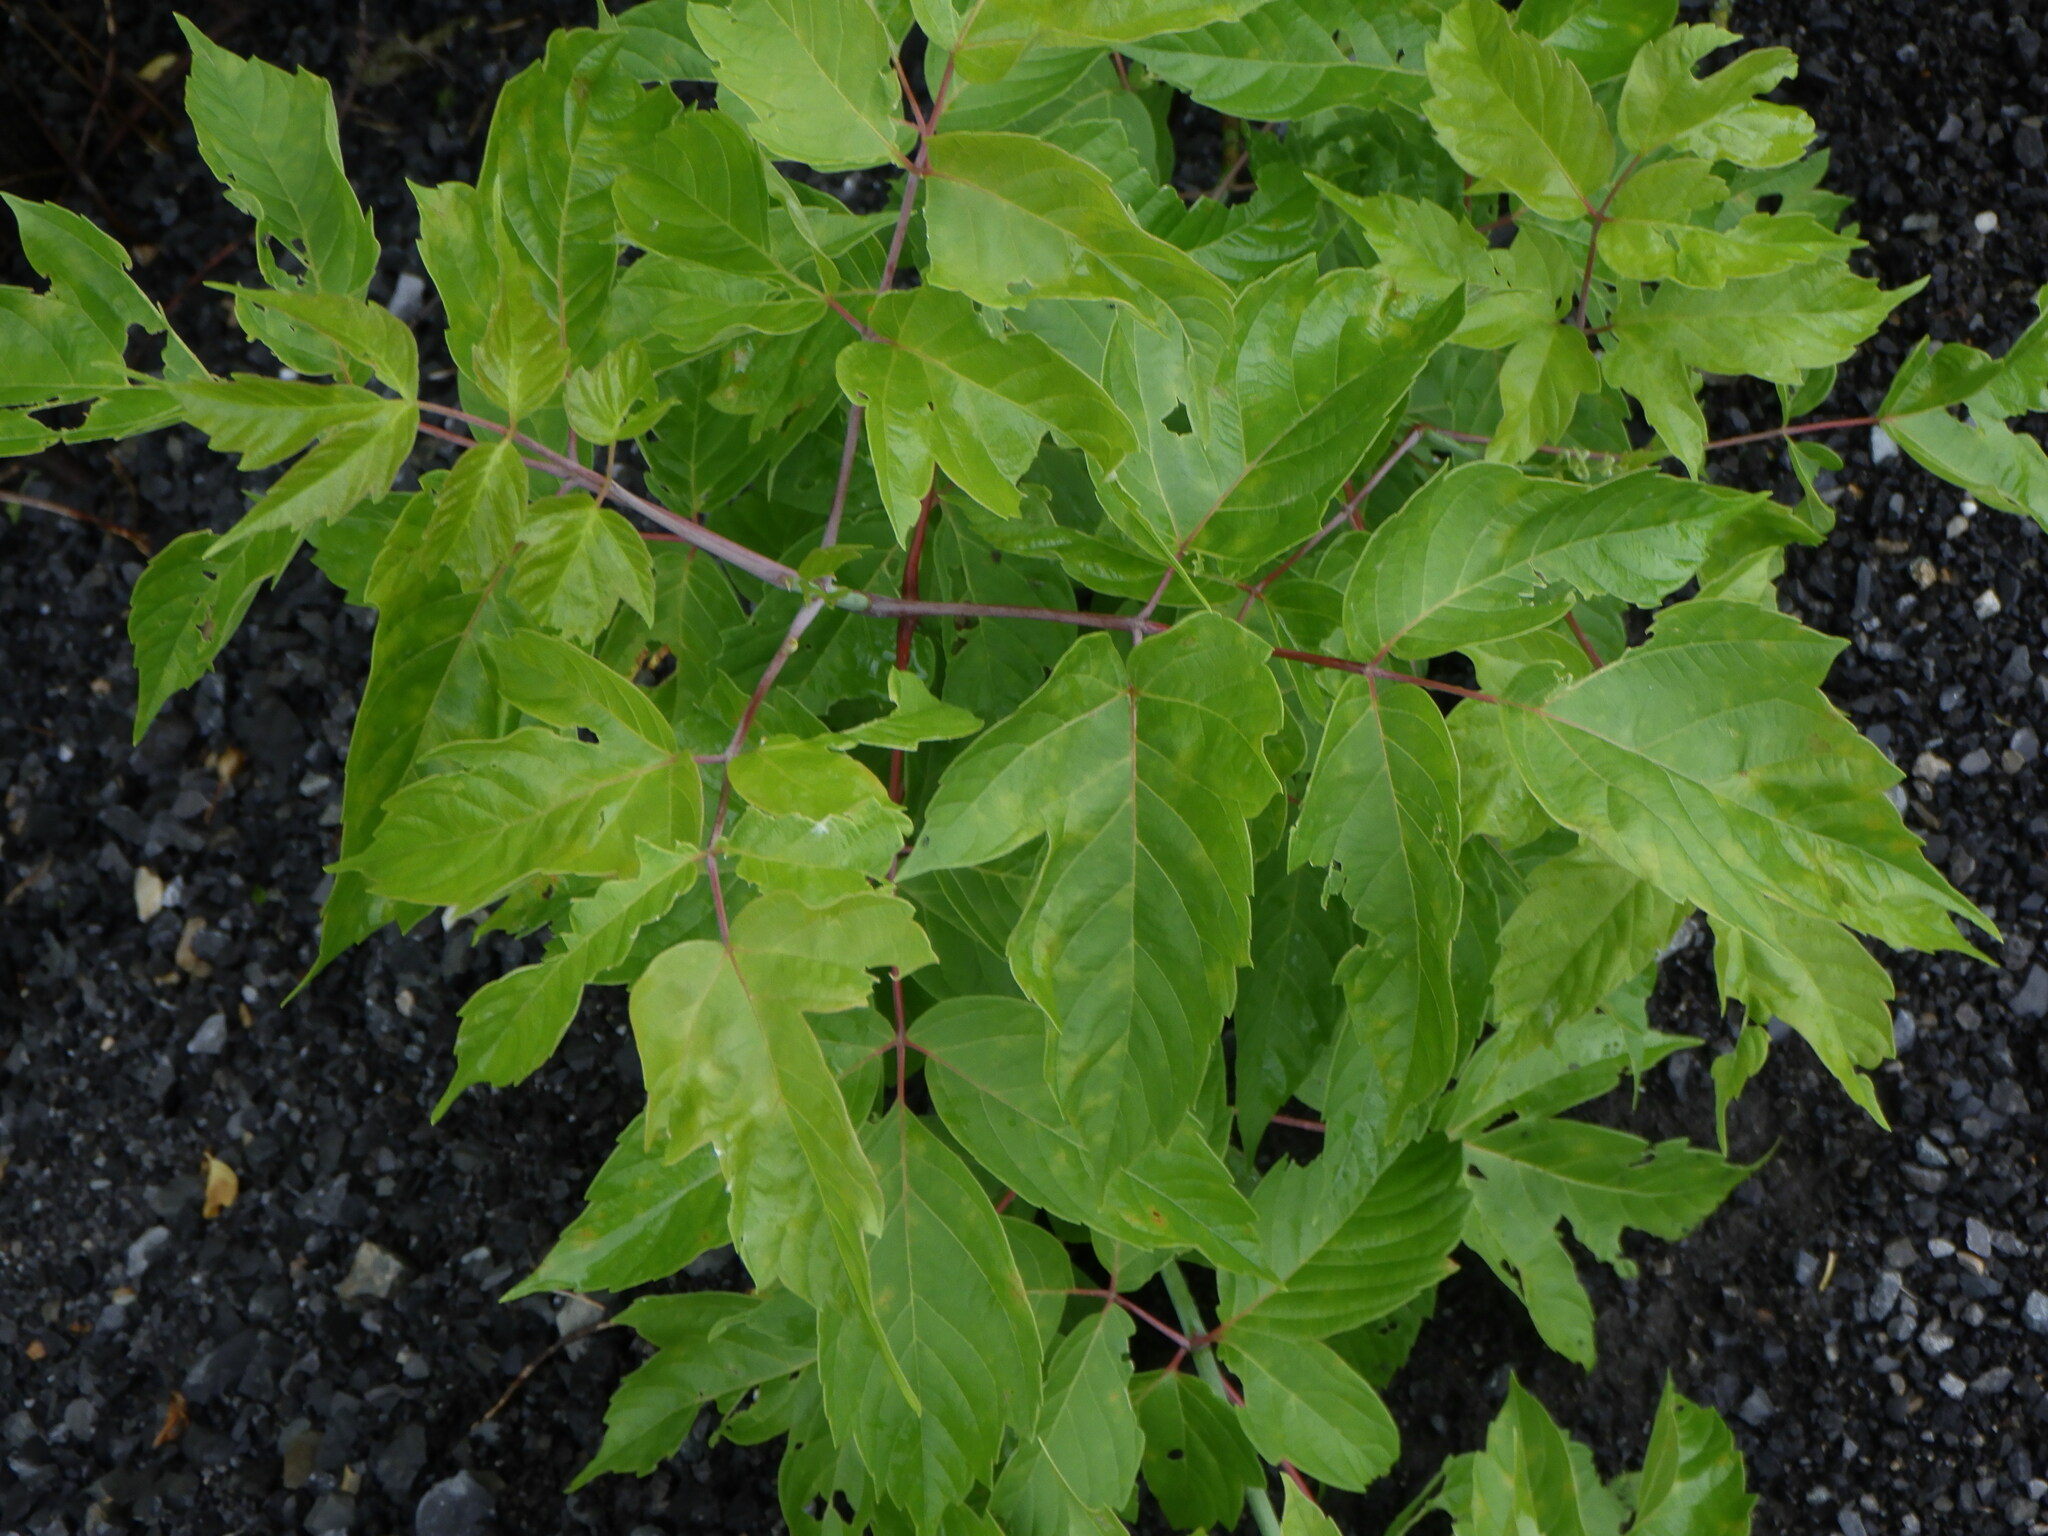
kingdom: Plantae
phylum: Tracheophyta
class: Magnoliopsida
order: Sapindales
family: Sapindaceae
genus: Acer
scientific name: Acer negundo
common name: Ashleaf maple
